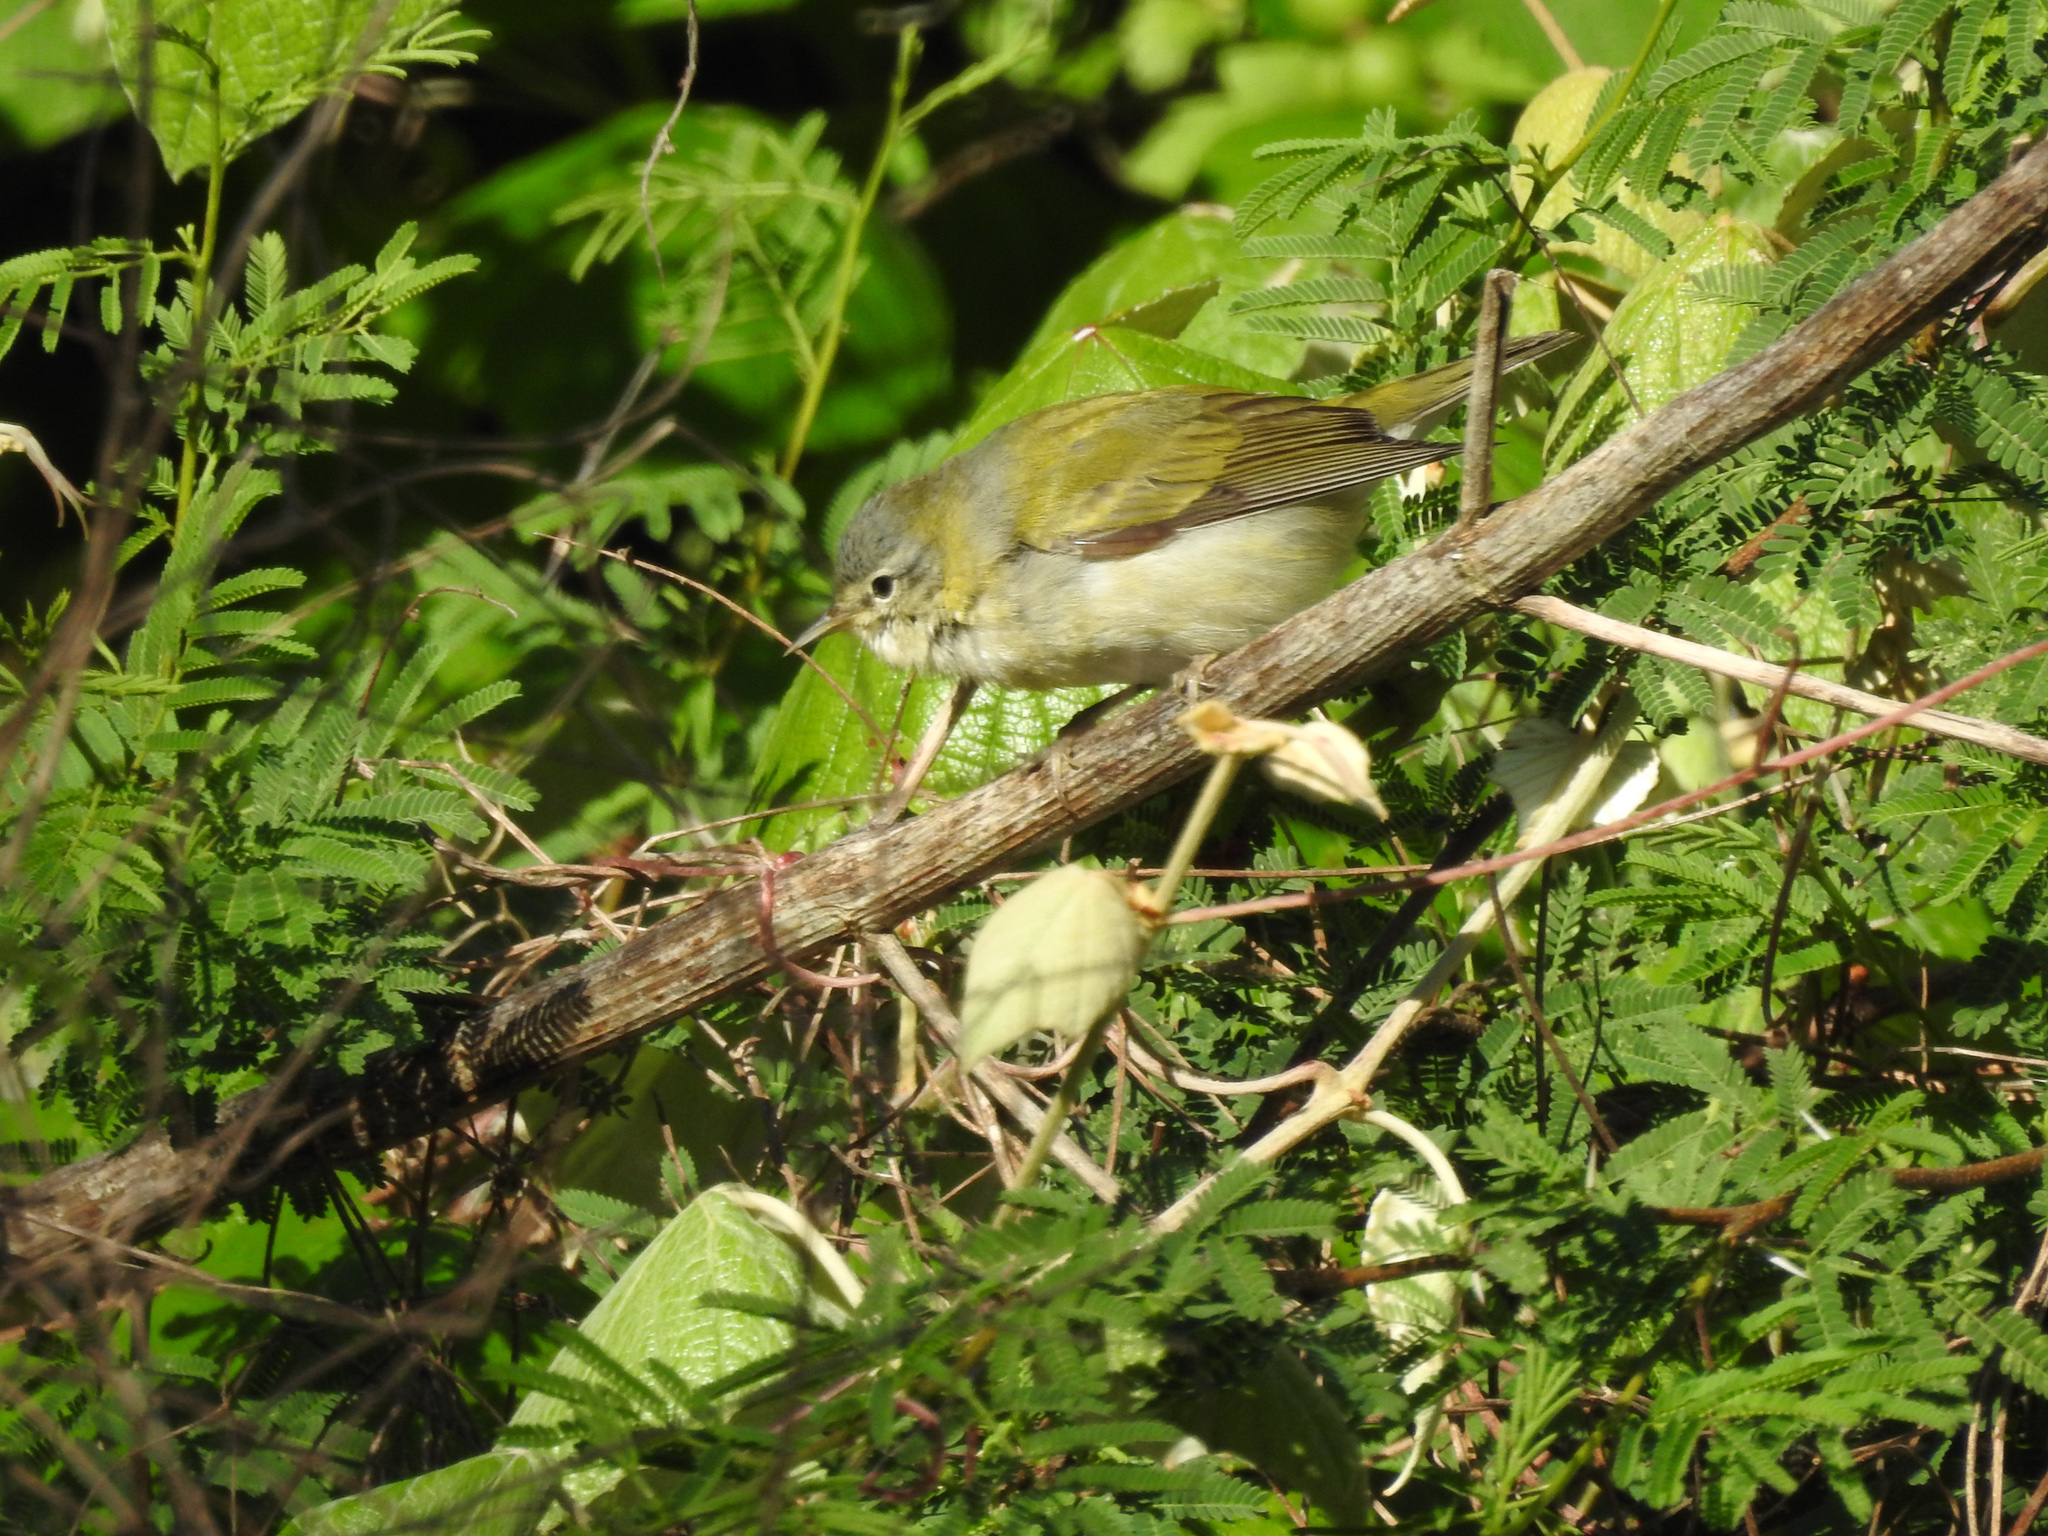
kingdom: Animalia
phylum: Chordata
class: Aves
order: Passeriformes
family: Parulidae
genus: Leiothlypis
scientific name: Leiothlypis peregrina
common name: Tennessee warbler
